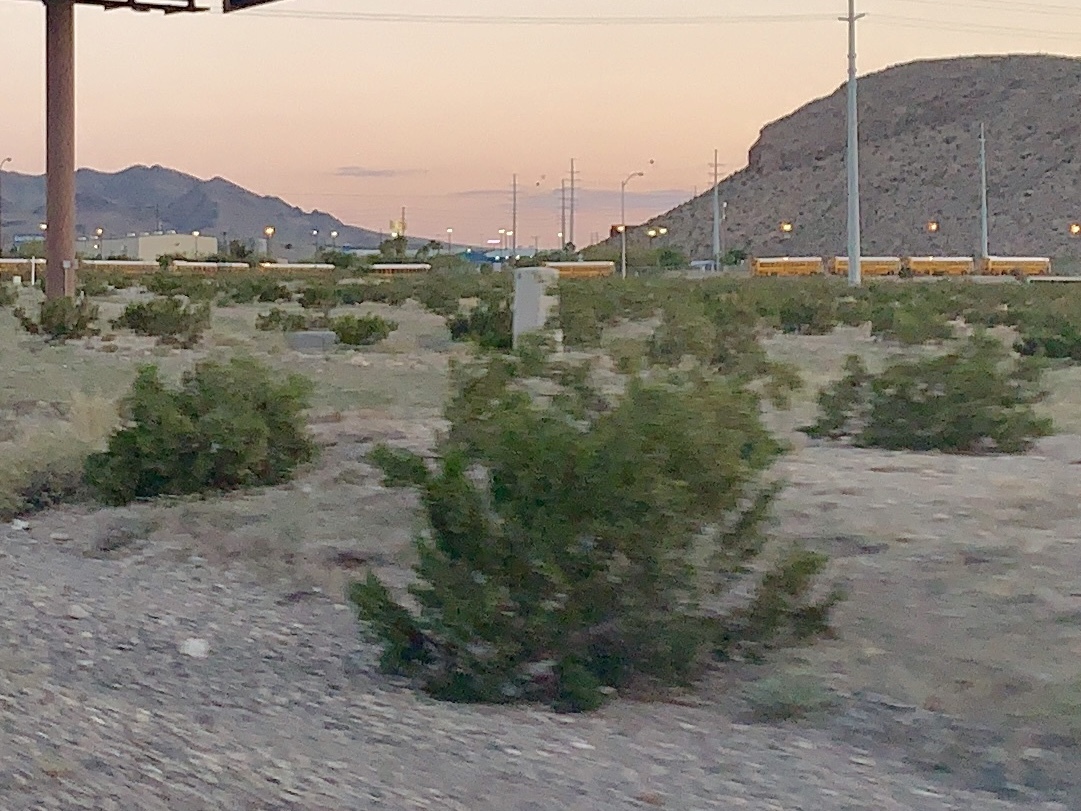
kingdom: Plantae
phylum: Tracheophyta
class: Magnoliopsida
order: Zygophyllales
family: Zygophyllaceae
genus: Larrea
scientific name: Larrea tridentata
